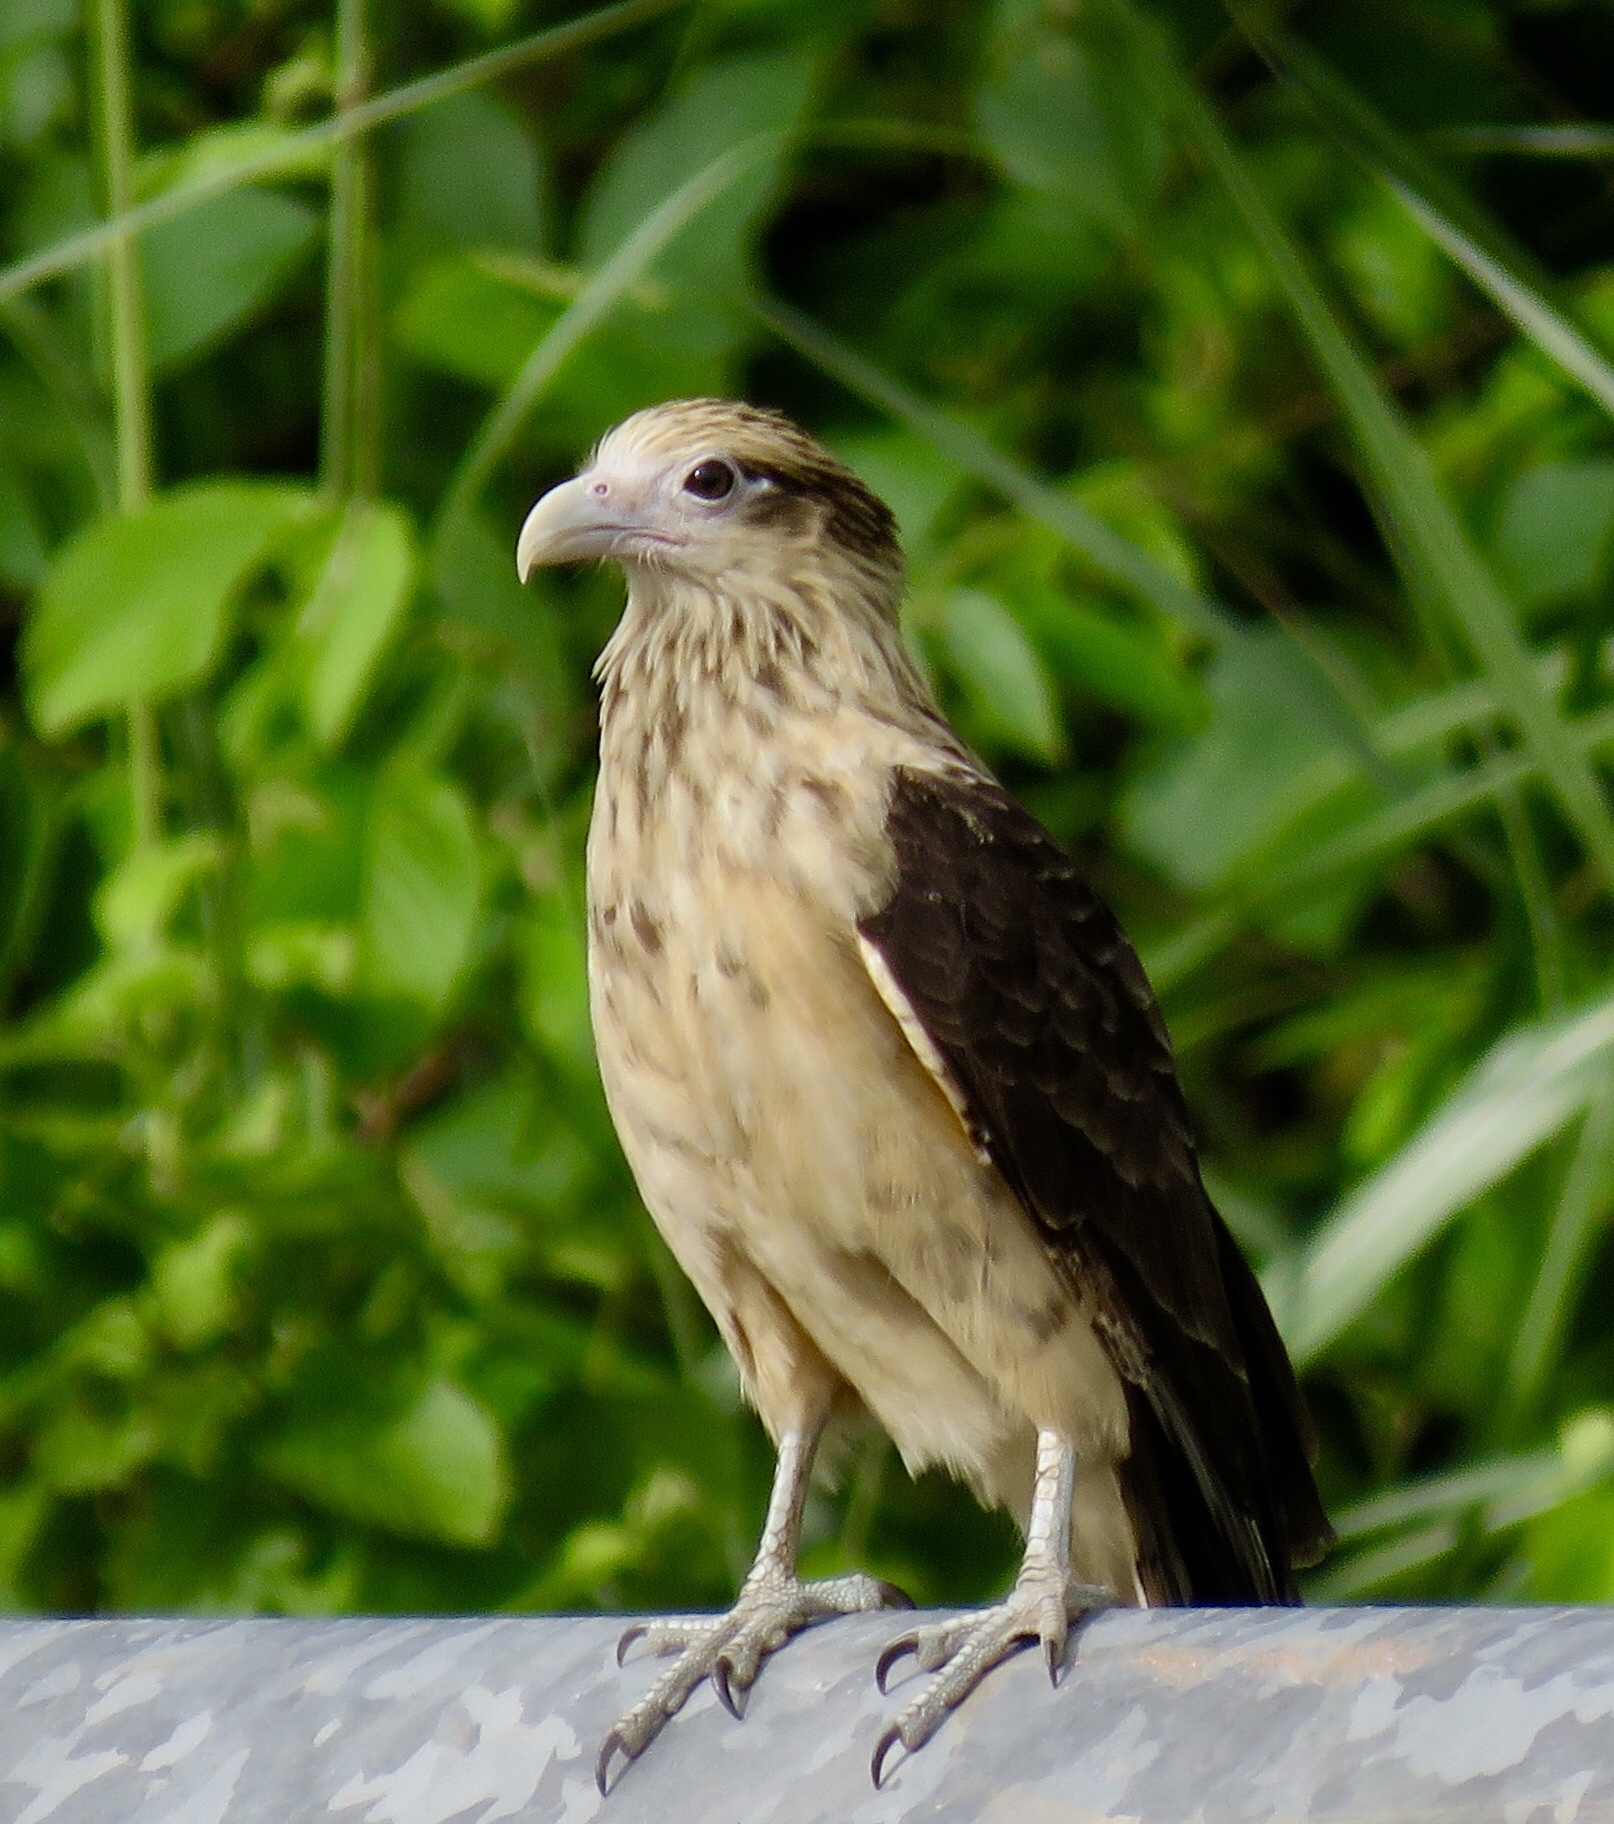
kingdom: Animalia
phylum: Chordata
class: Aves
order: Falconiformes
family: Falconidae
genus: Daptrius
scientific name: Daptrius
